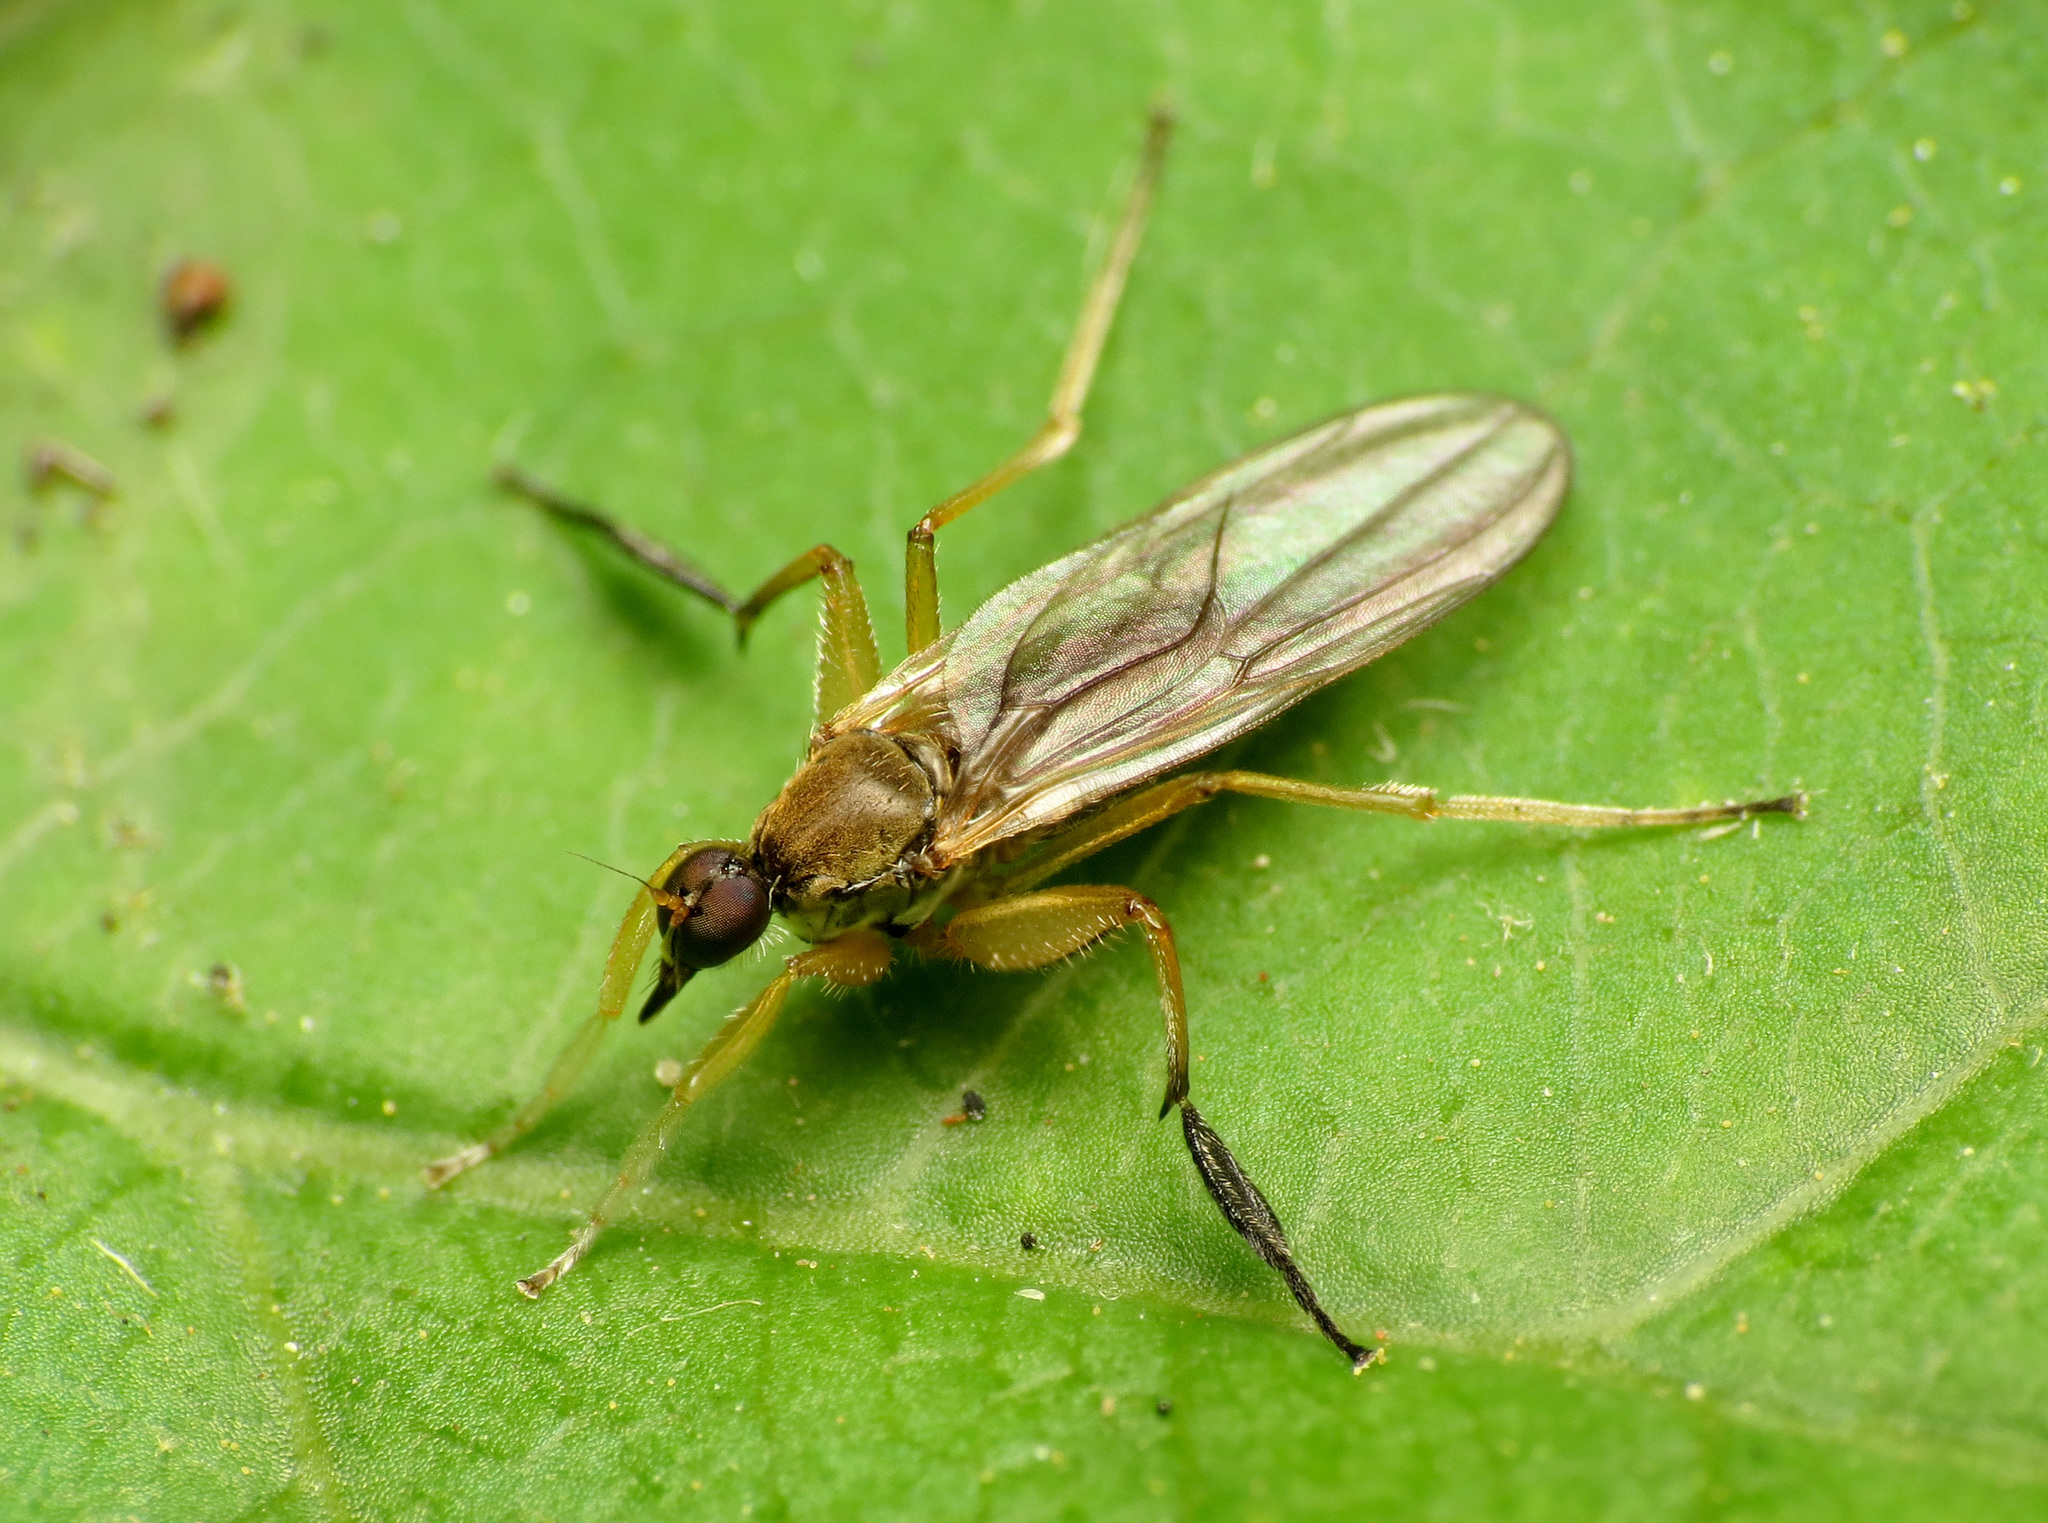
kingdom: Animalia
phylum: Arthropoda
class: Insecta
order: Diptera
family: Hybotidae
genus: Platypalpus
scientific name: Platypalpus discifer
